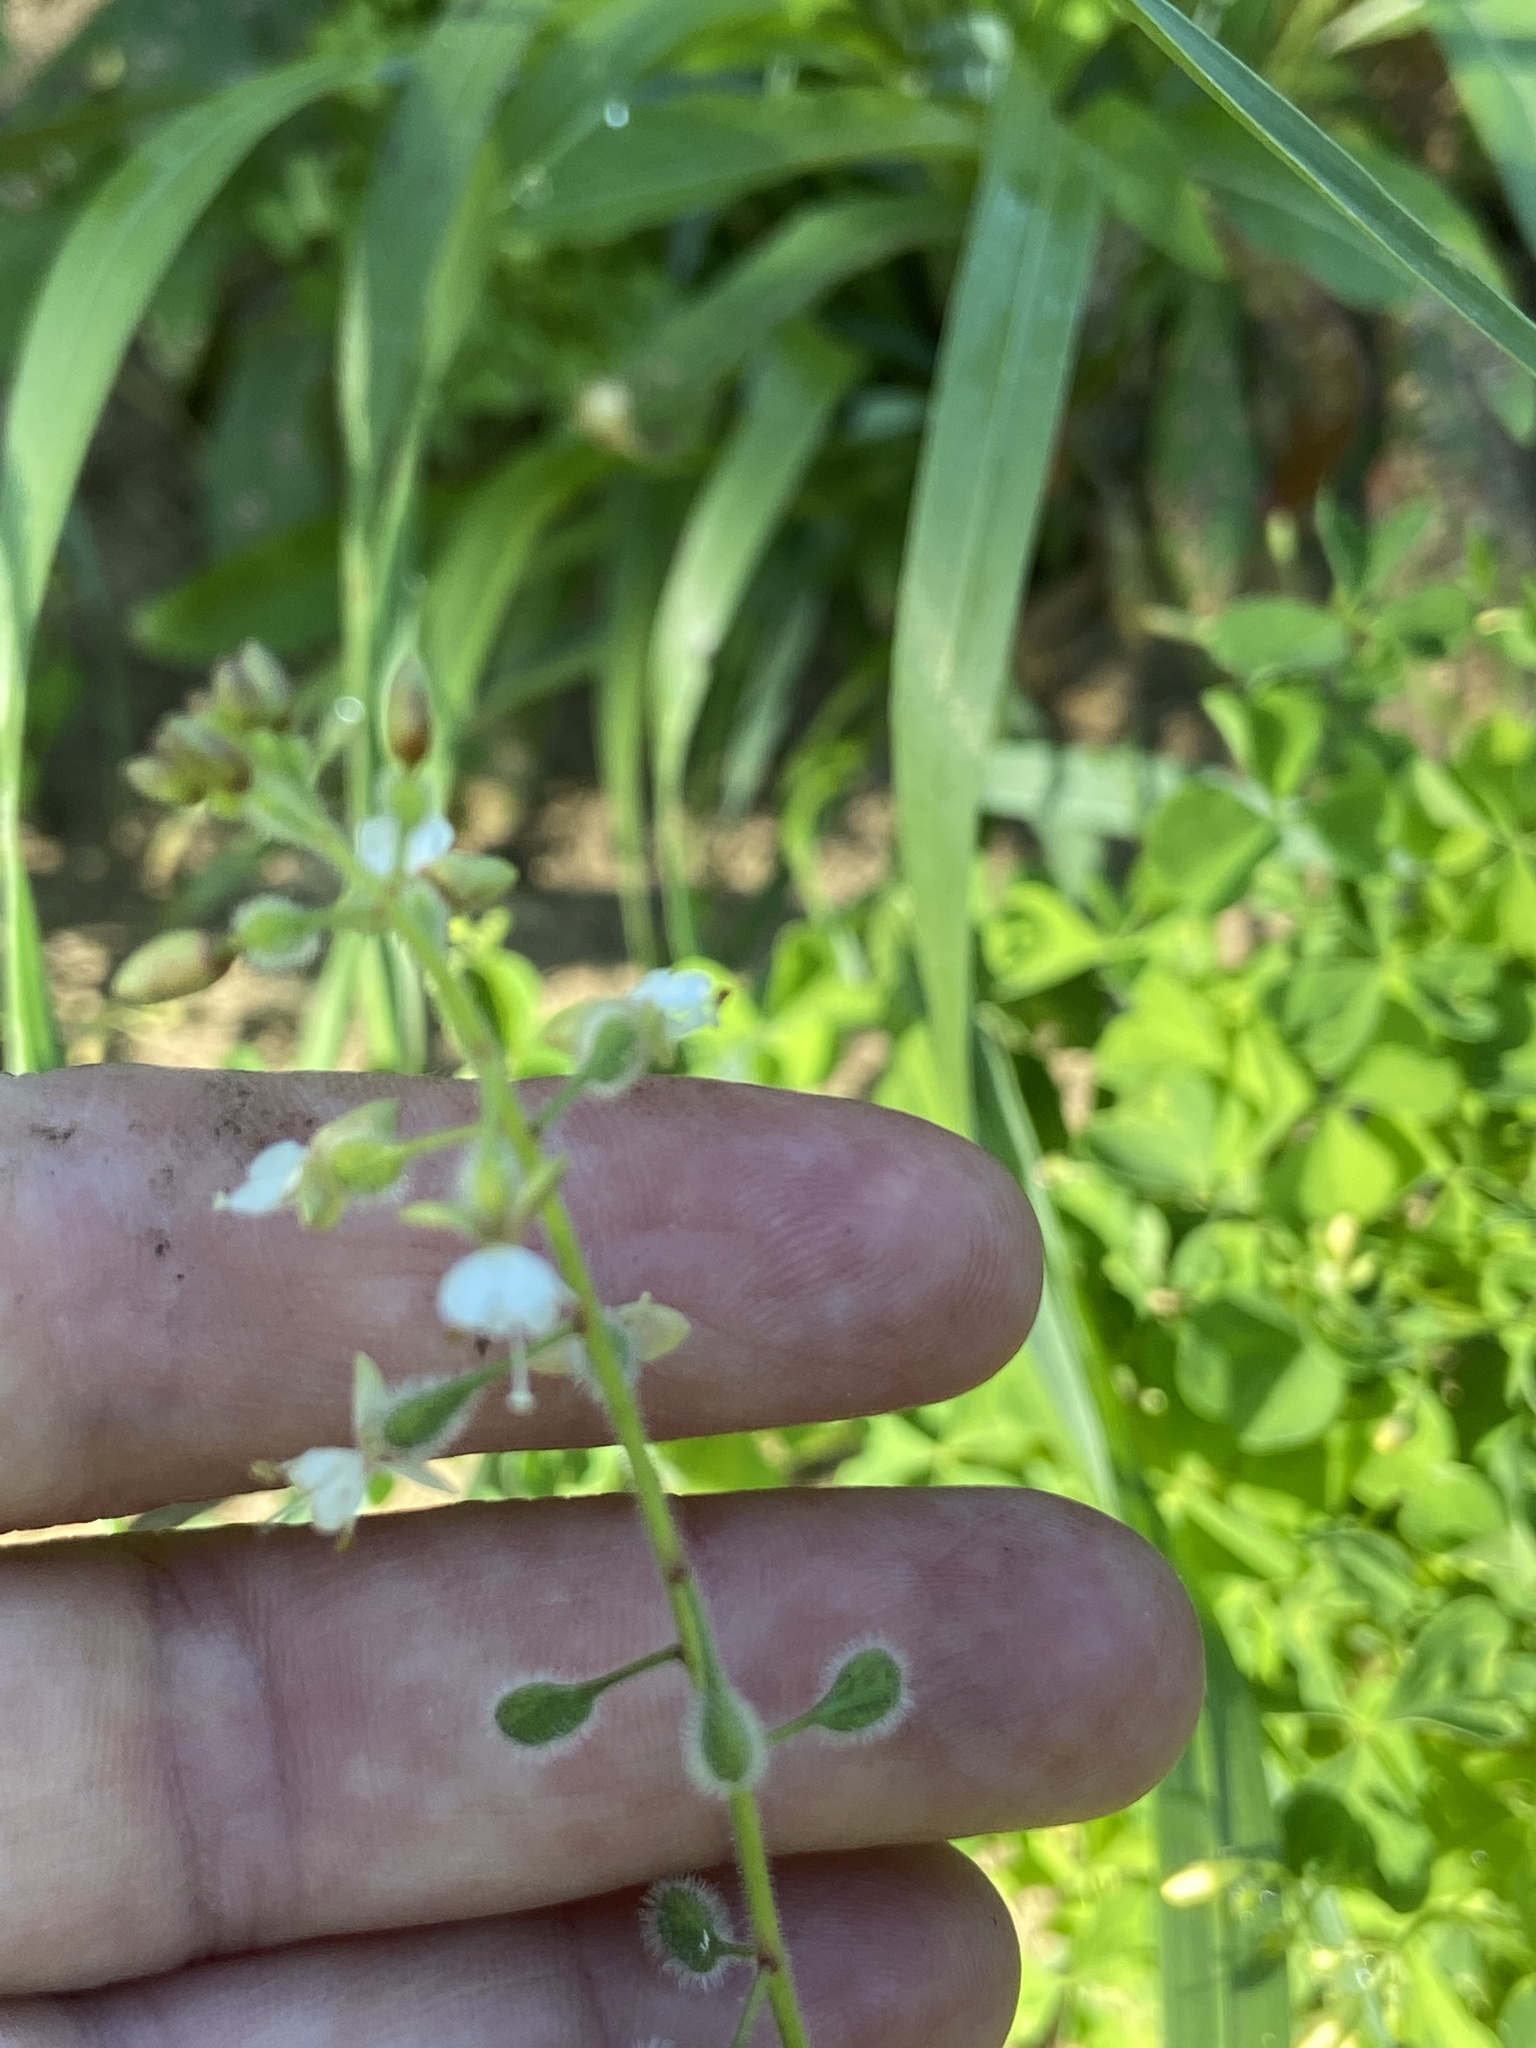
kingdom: Plantae
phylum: Tracheophyta
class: Magnoliopsida
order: Myrtales
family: Onagraceae
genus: Circaea
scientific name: Circaea canadensis
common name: Broad-leaved enchanter's nightshade
